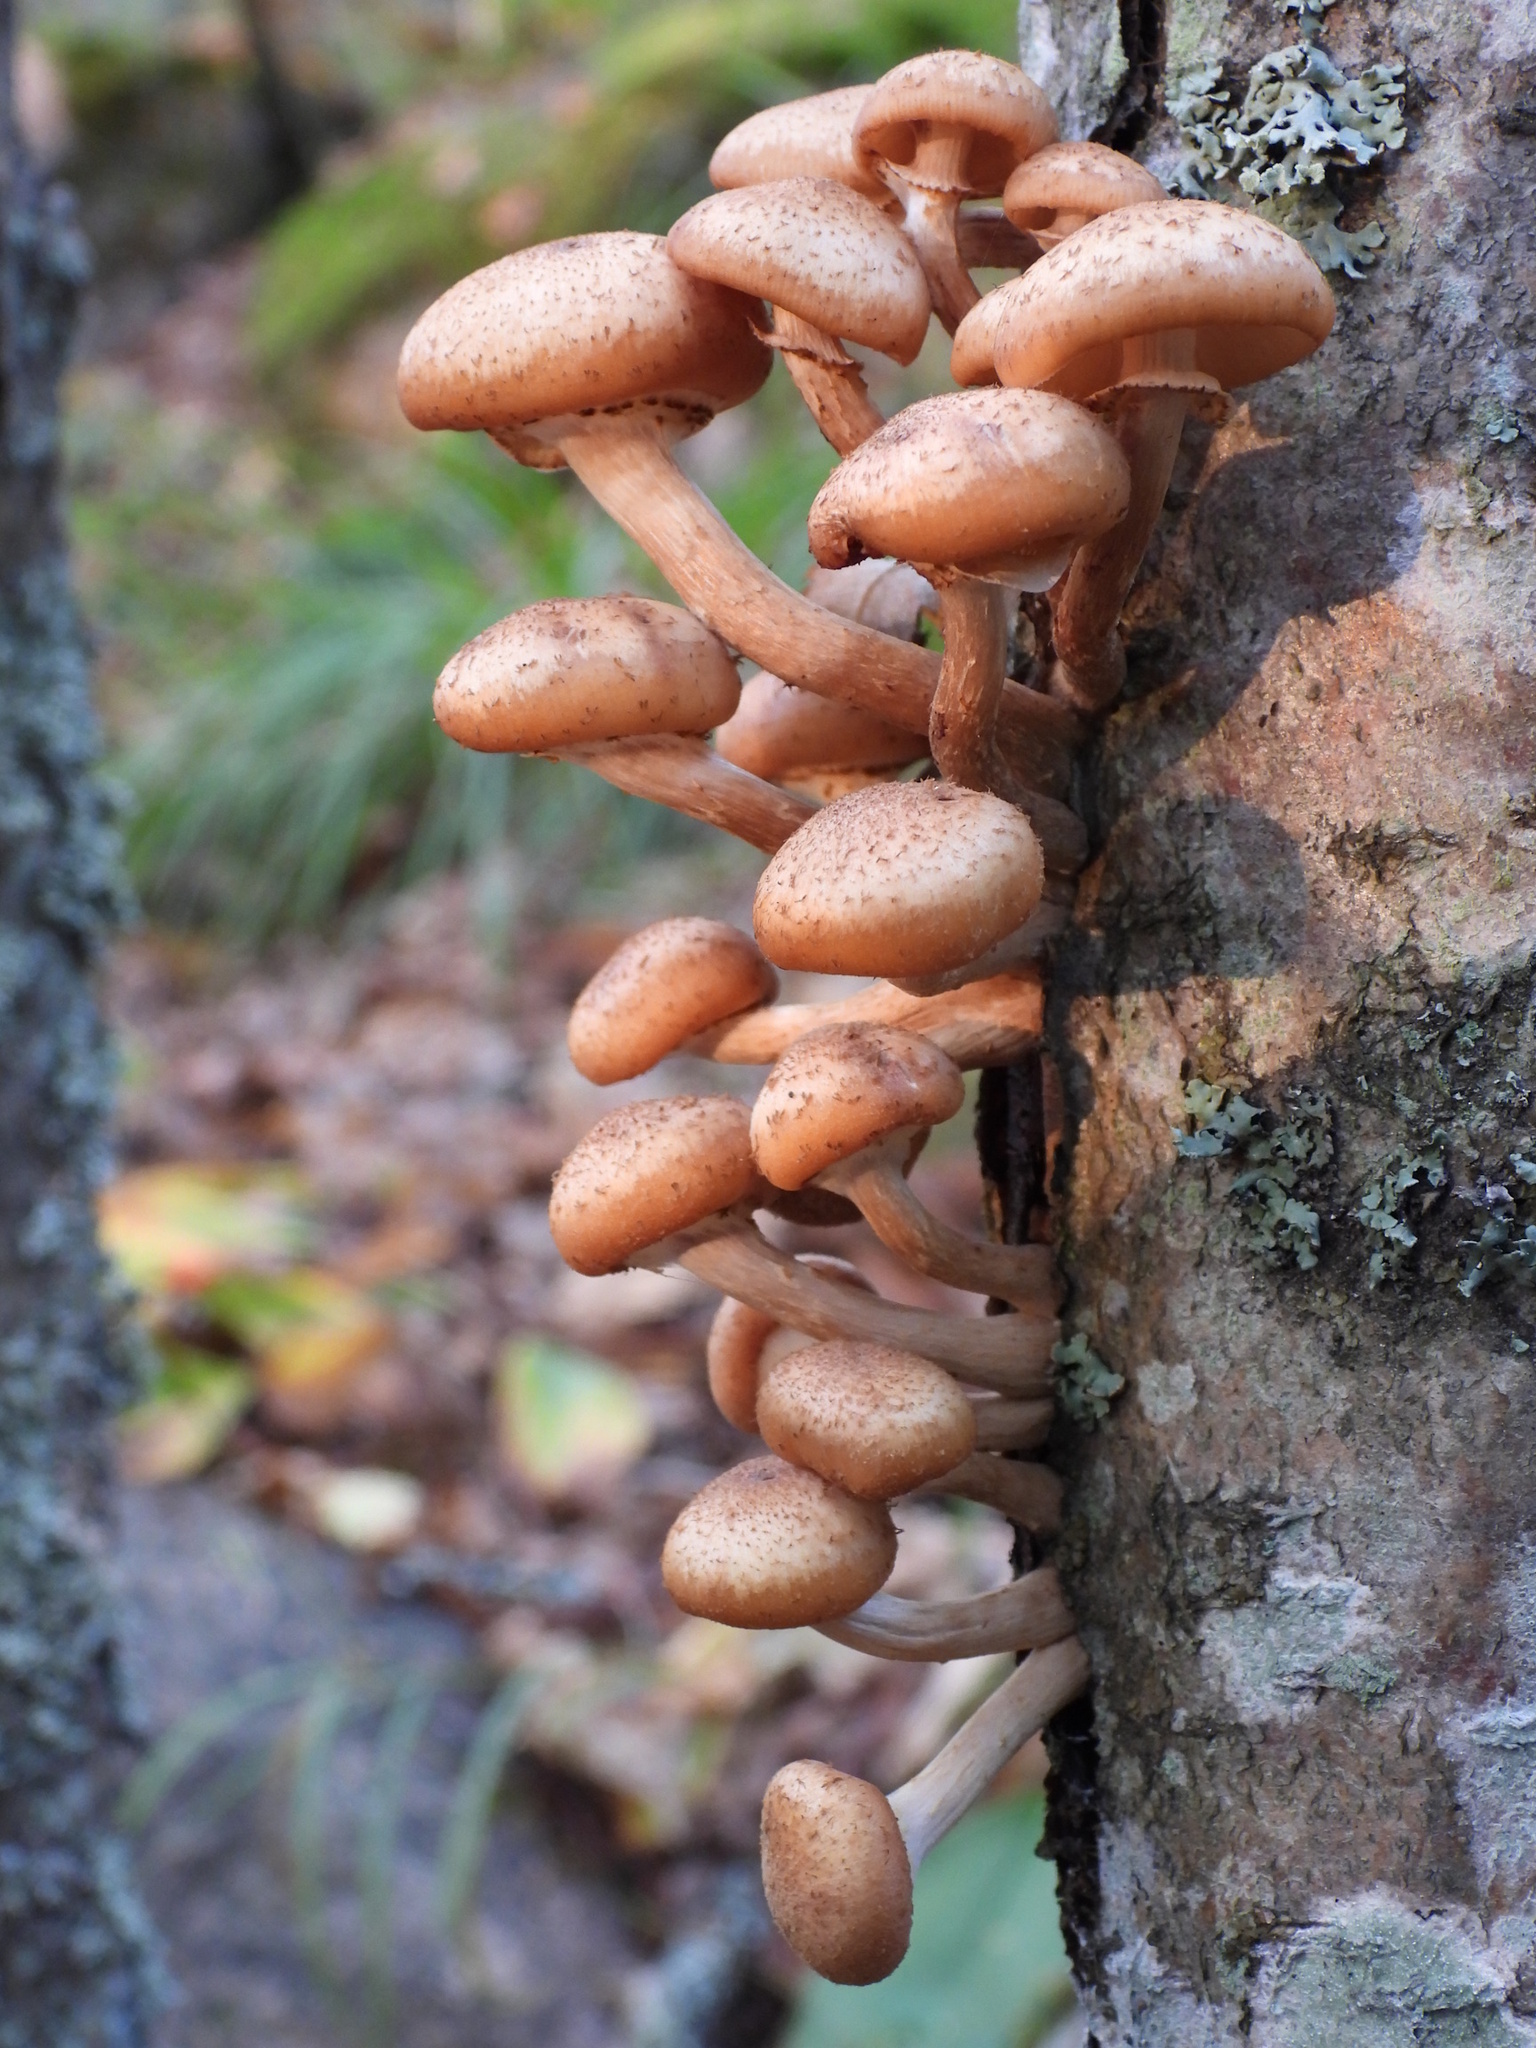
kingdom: Fungi
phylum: Basidiomycota
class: Agaricomycetes
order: Agaricales
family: Physalacriaceae
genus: Armillaria
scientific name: Armillaria borealis
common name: Northern honey fungus
